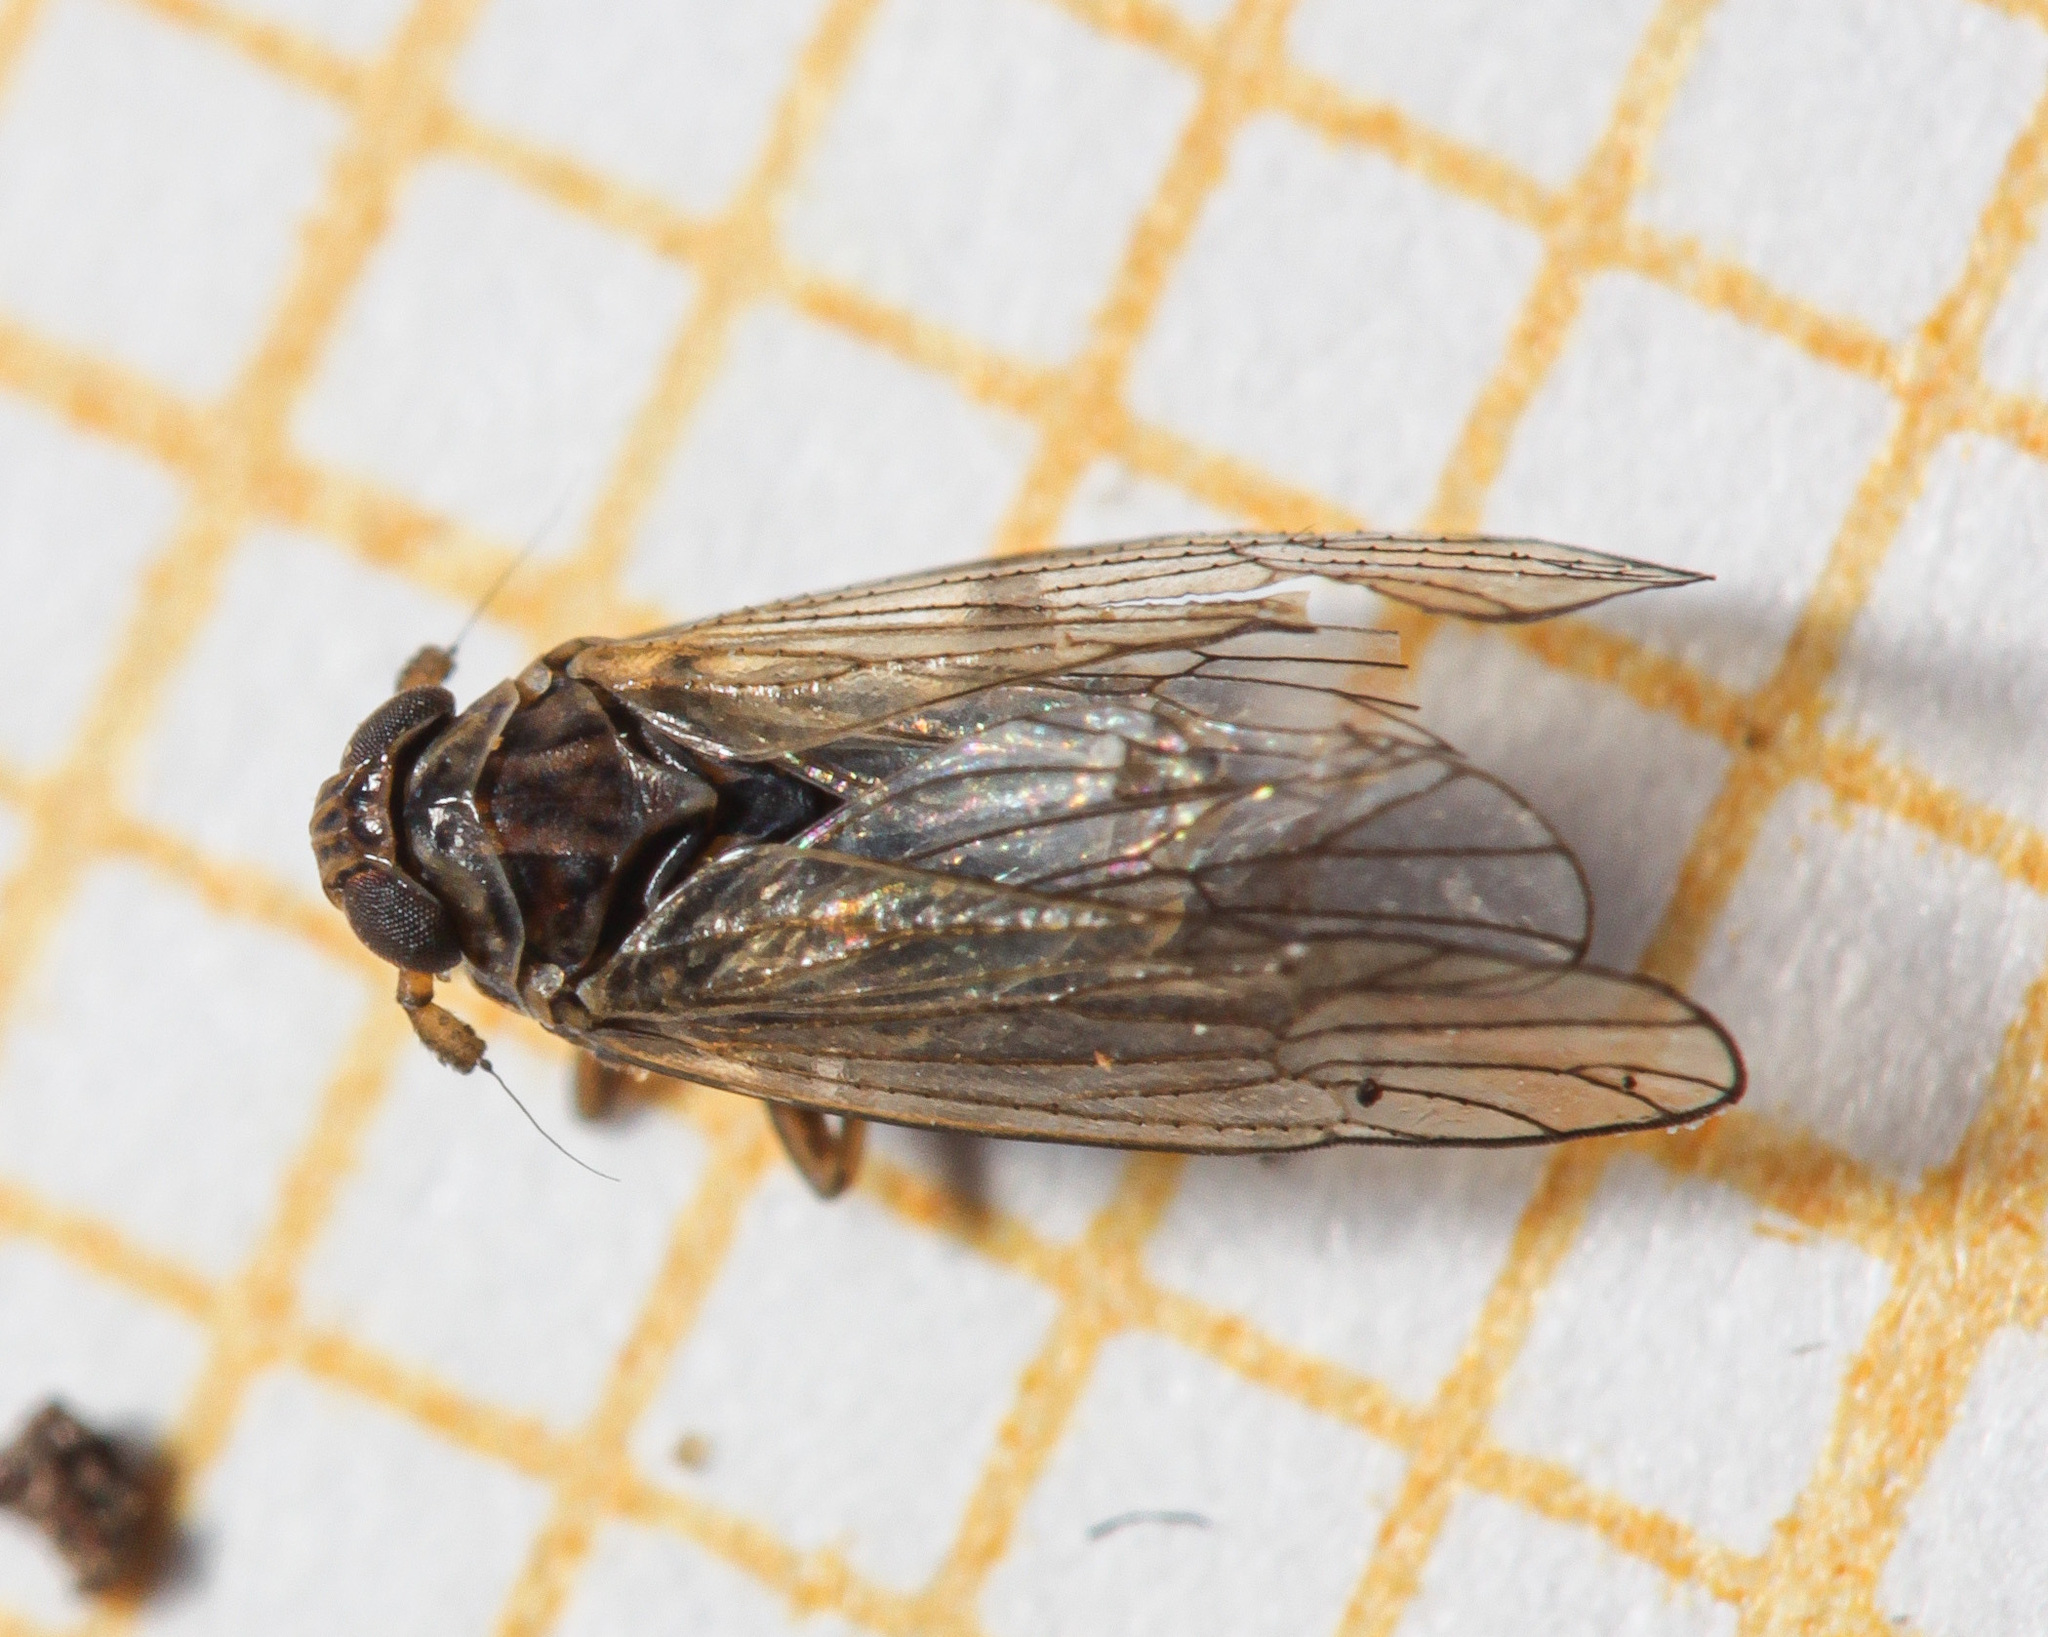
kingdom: Animalia
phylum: Arthropoda
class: Insecta
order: Hemiptera
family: Delphacidae
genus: Javesella
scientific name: Javesella
